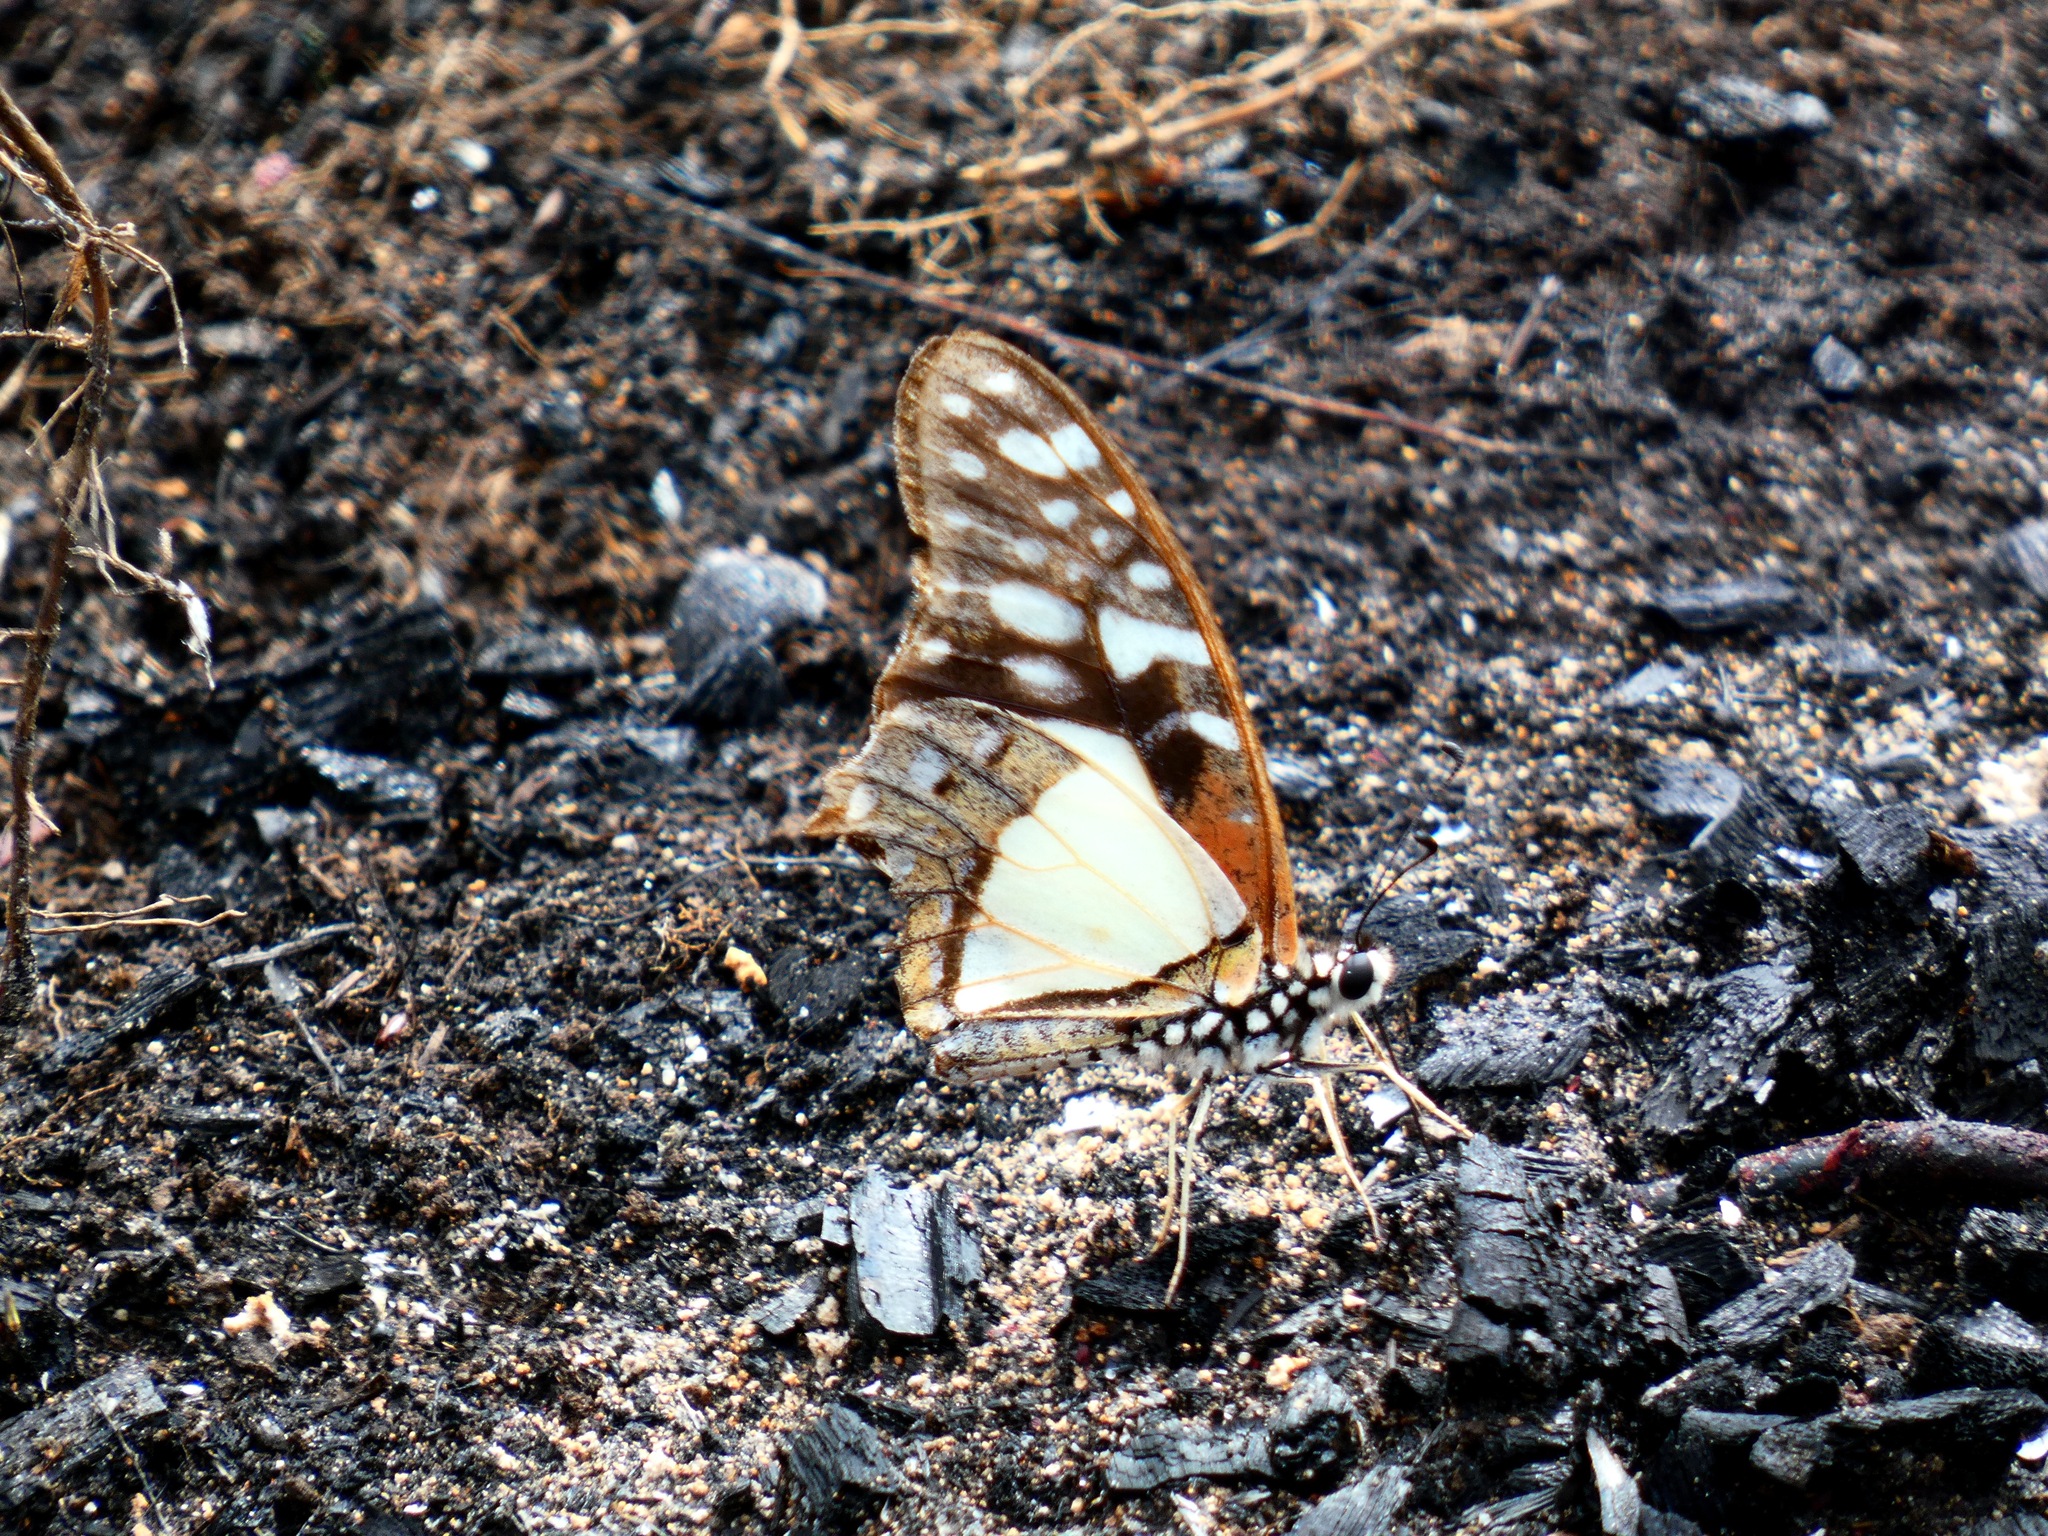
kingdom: Animalia
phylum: Arthropoda
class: Insecta
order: Lepidoptera
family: Papilionidae
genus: Graphium
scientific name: Graphium angolanus
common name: Angola white-lady swordtail
